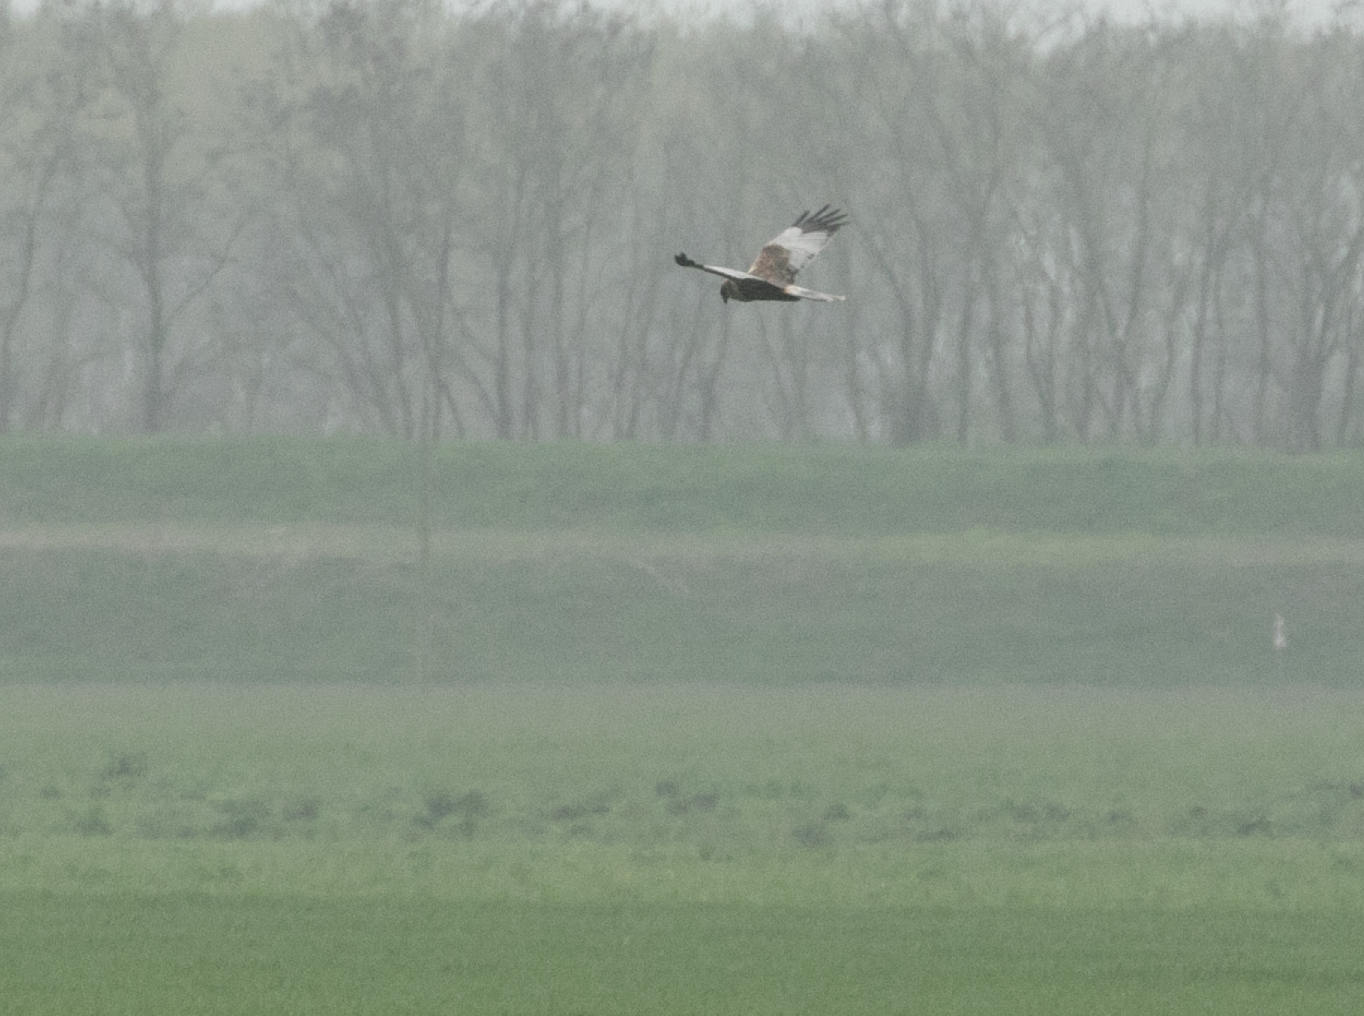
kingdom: Animalia
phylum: Chordata
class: Aves
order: Accipitriformes
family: Accipitridae
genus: Circus
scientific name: Circus aeruginosus
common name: Western marsh harrier
